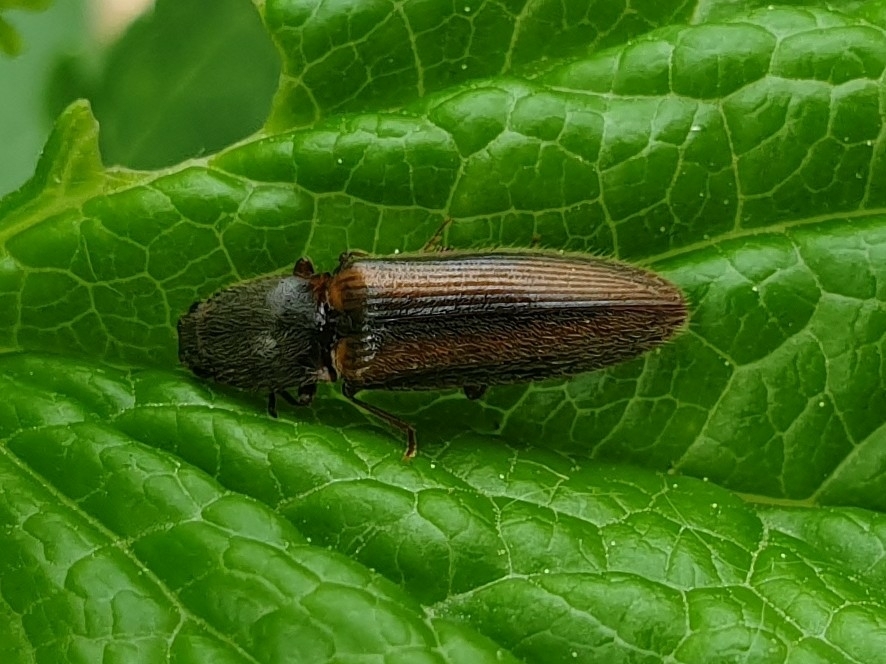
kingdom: Animalia
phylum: Arthropoda
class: Insecta
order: Coleoptera
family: Elateridae
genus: Athous
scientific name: Athous vittatus
